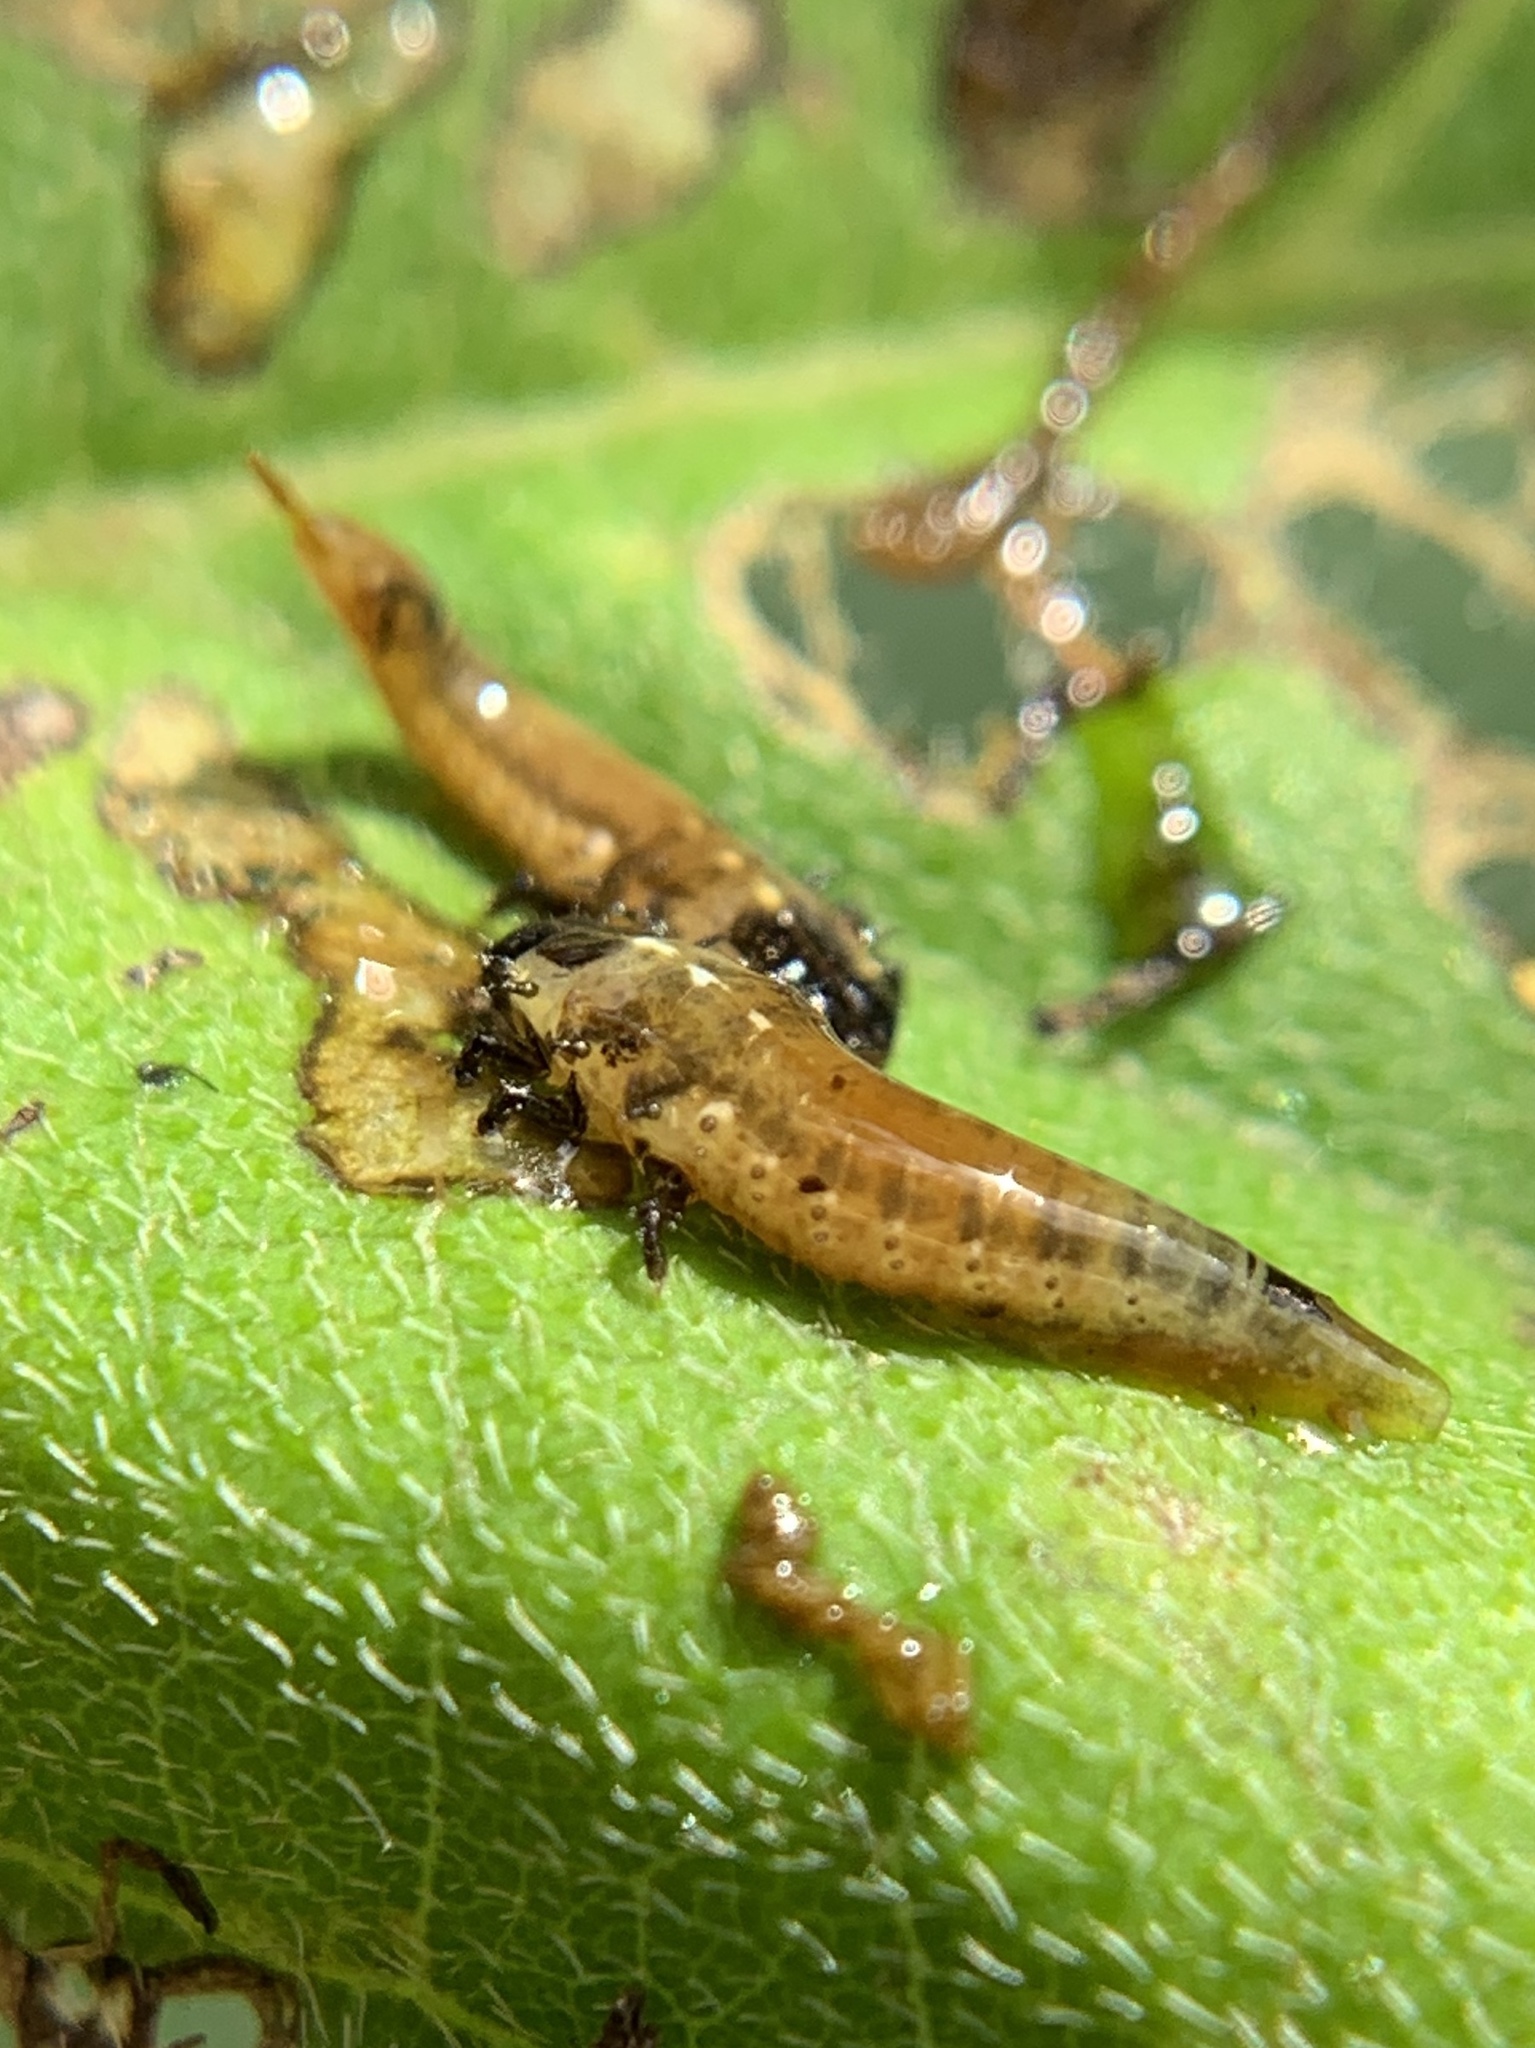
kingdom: Animalia
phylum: Arthropoda
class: Insecta
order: Coleoptera
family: Chrysomelidae
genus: Eurypepla
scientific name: Eurypepla calochroma
